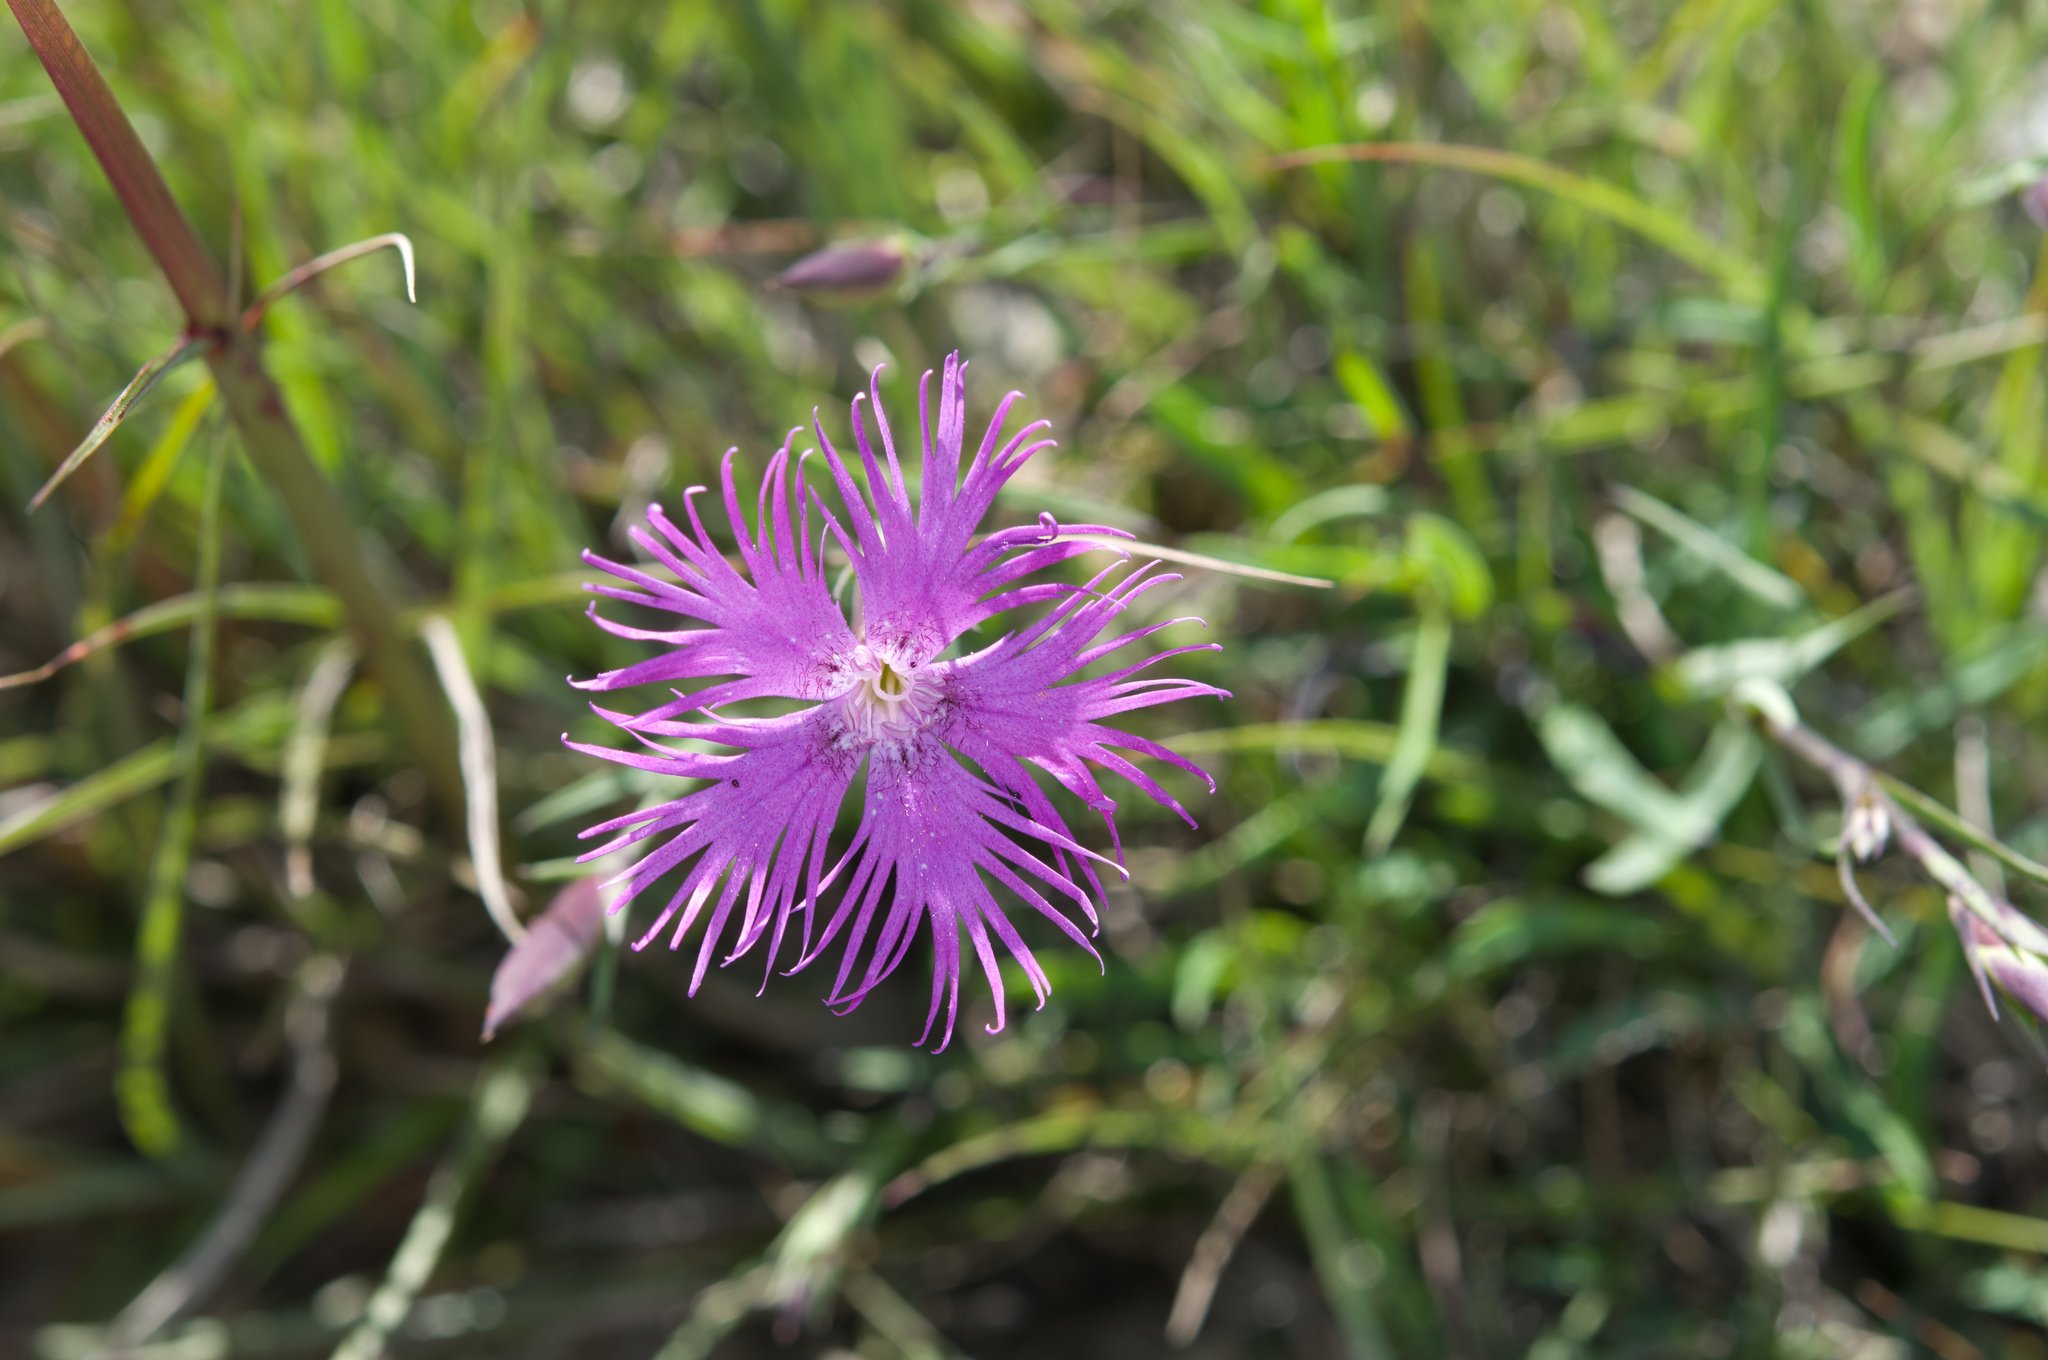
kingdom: Plantae
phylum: Tracheophyta
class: Magnoliopsida
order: Caryophyllales
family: Caryophyllaceae
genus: Dianthus
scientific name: Dianthus pygmaeus
